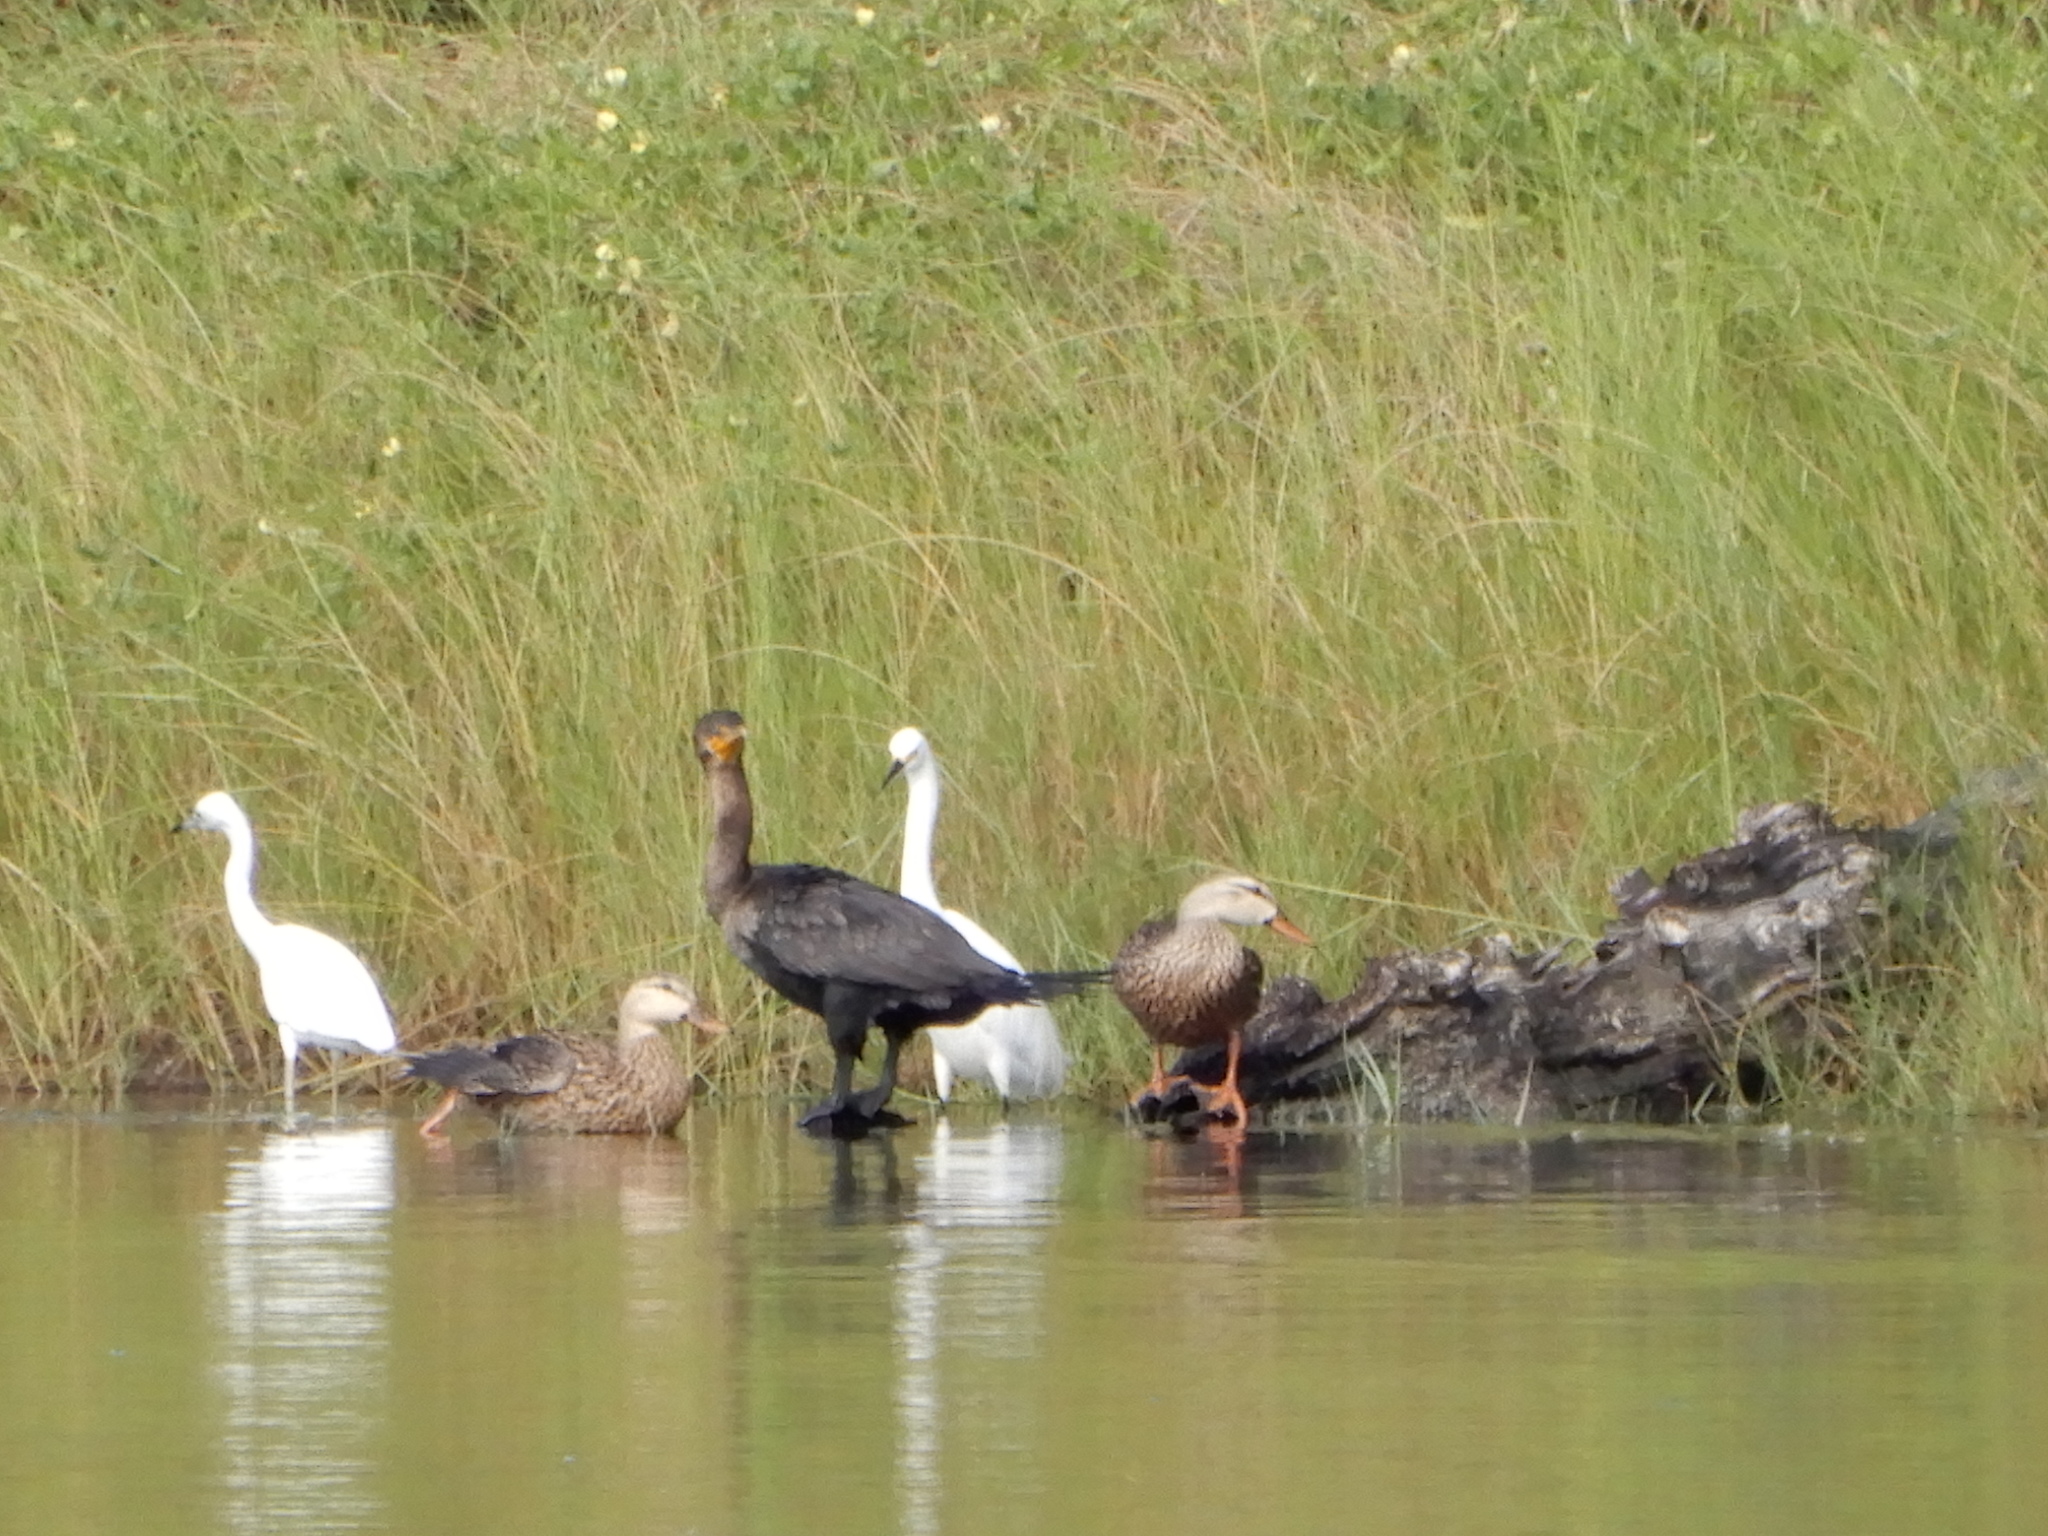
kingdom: Animalia
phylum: Chordata
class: Aves
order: Suliformes
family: Phalacrocoracidae
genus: Phalacrocorax
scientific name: Phalacrocorax auritus
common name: Double-crested cormorant
